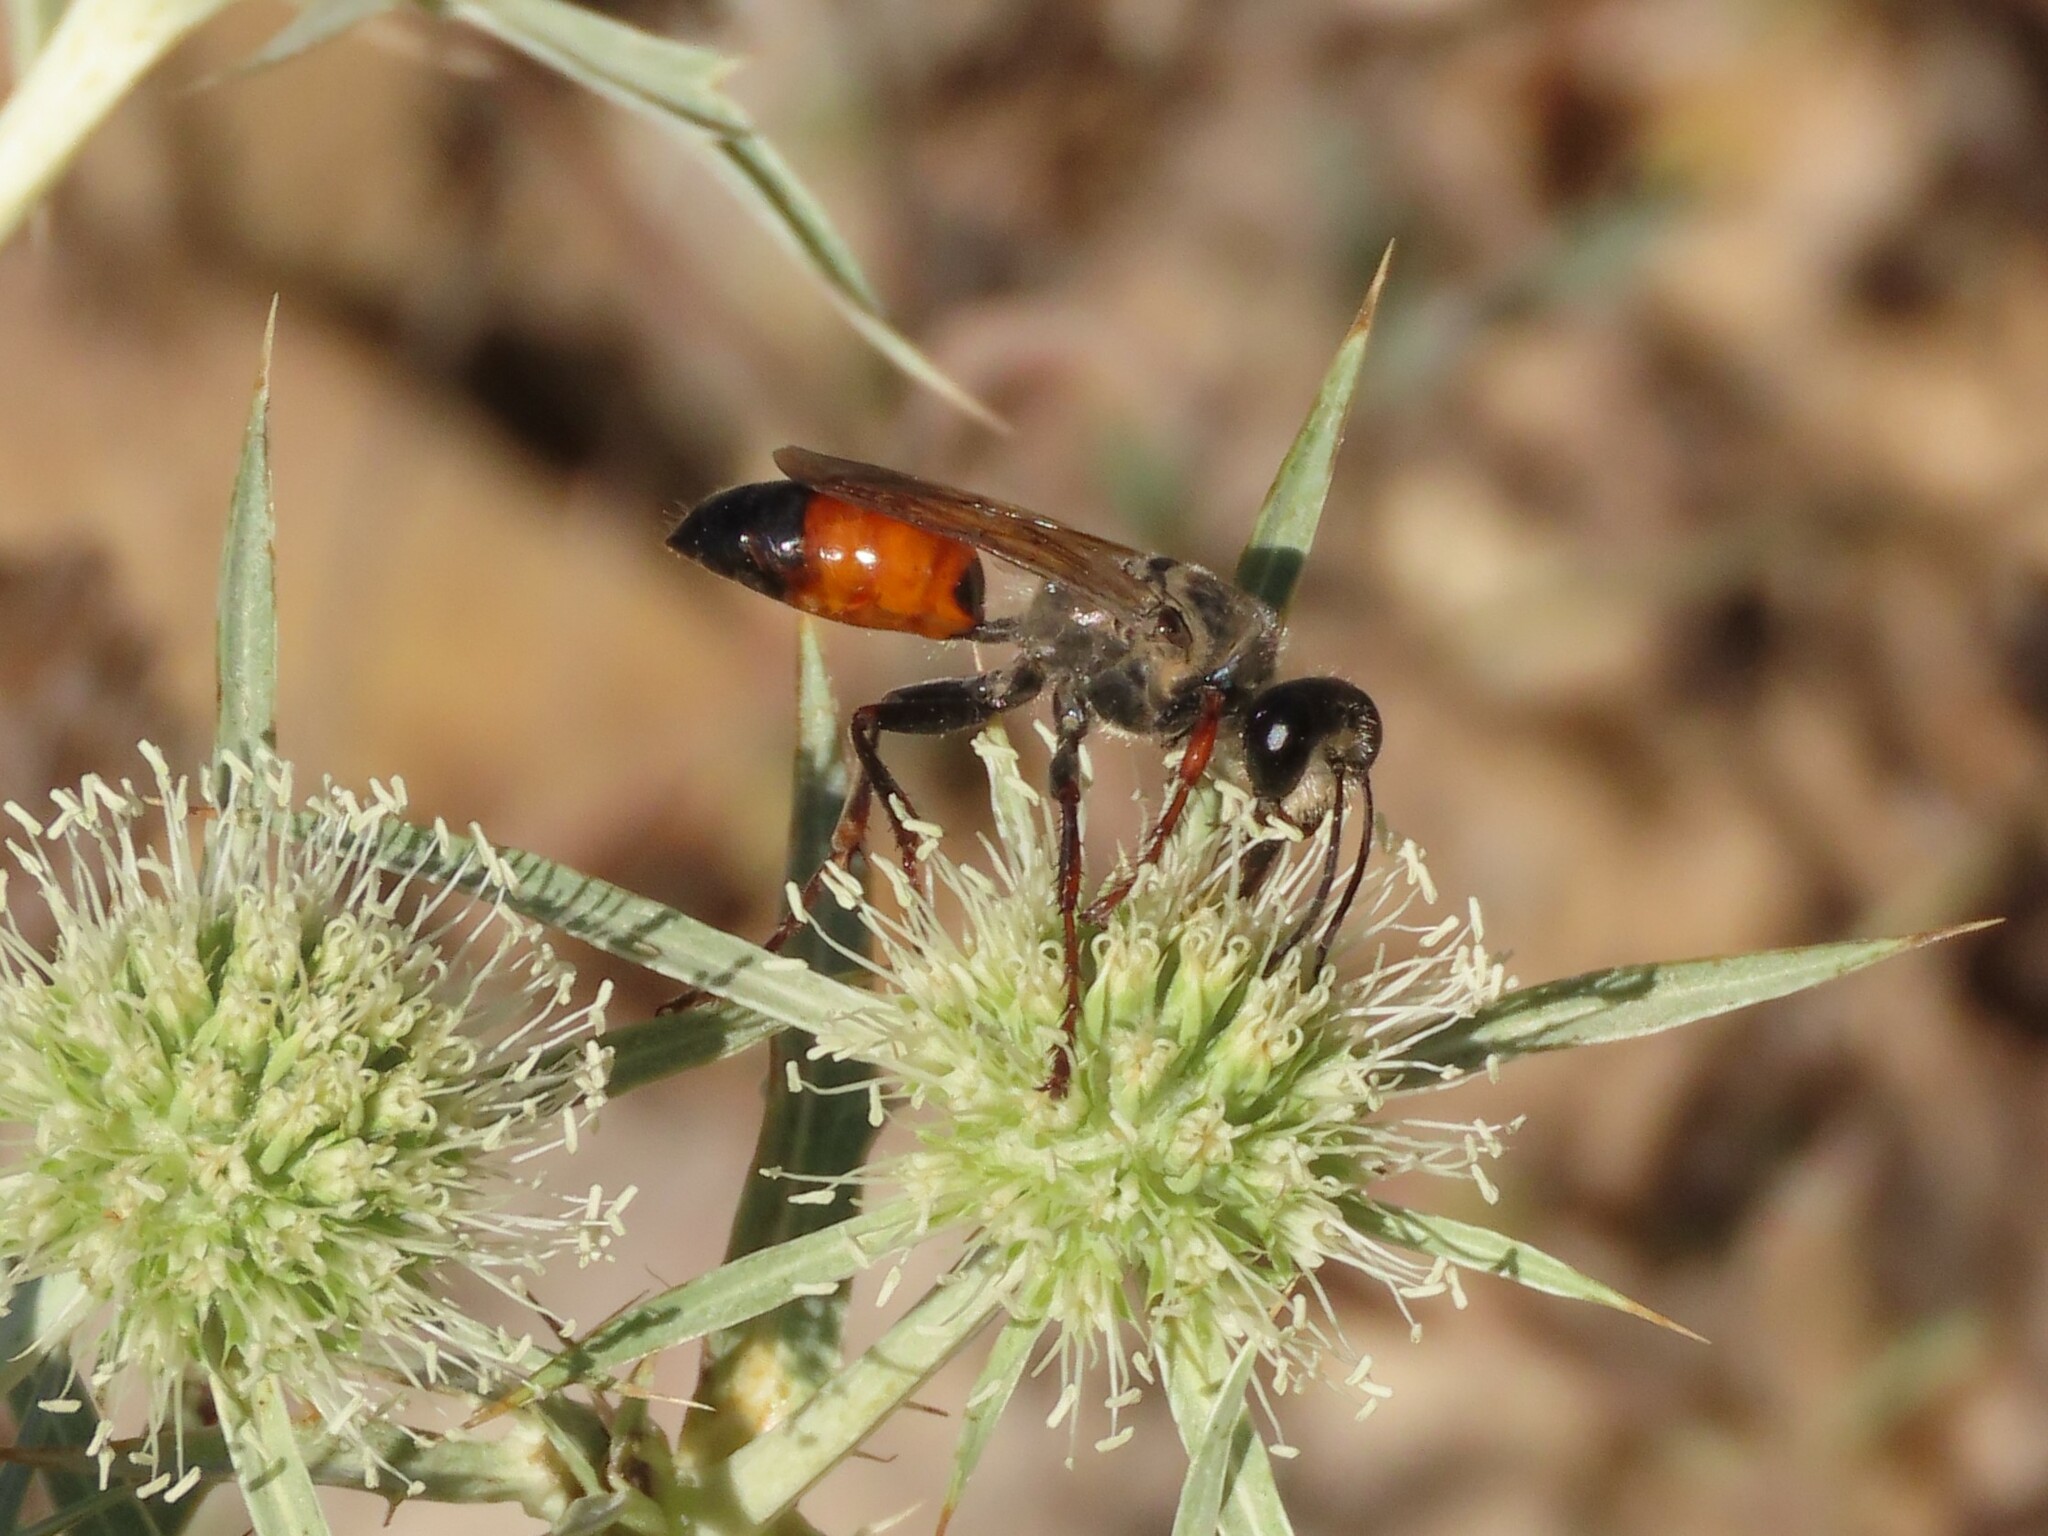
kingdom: Animalia
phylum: Arthropoda
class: Insecta
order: Hymenoptera
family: Sphecidae
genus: Sphex
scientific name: Sphex funerarius
